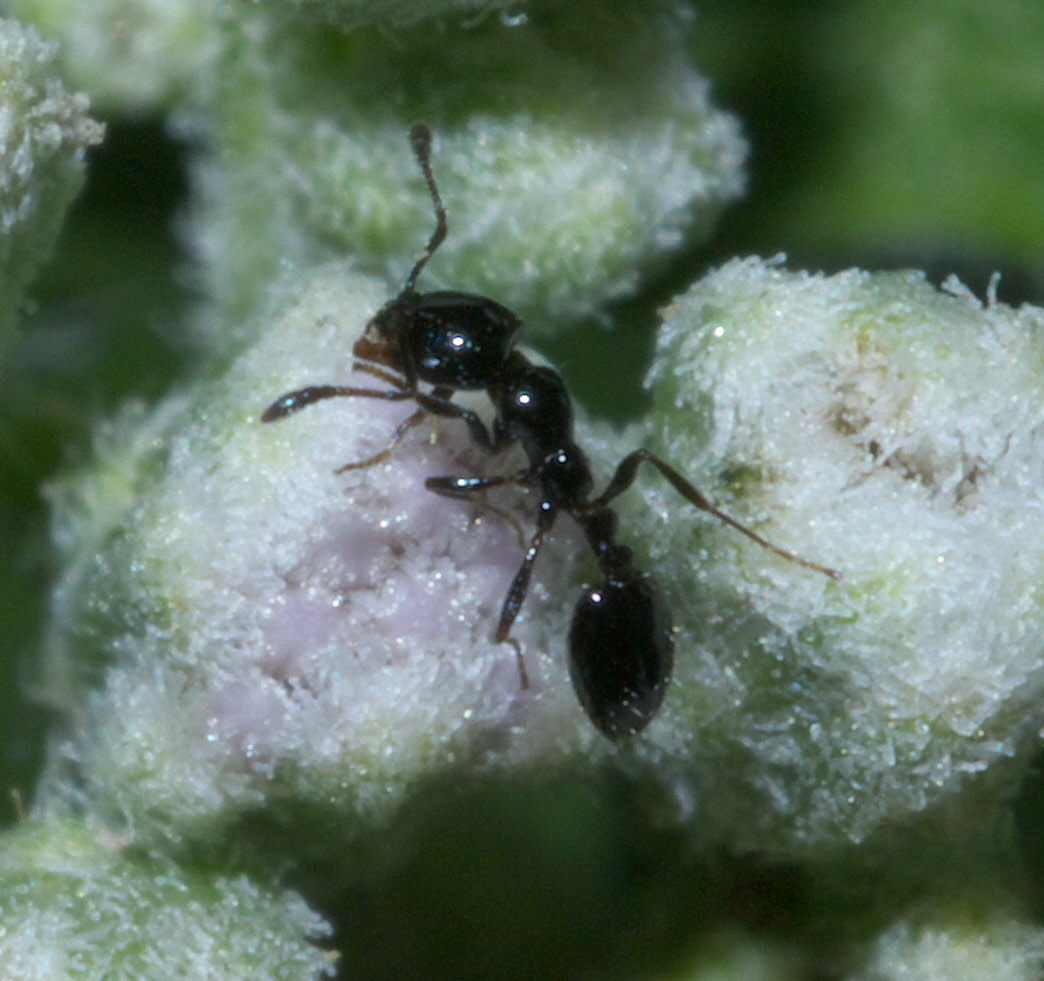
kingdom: Animalia
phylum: Arthropoda
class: Insecta
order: Hymenoptera
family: Formicidae
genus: Monomorium
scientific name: Monomorium minimum
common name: Little black ant
